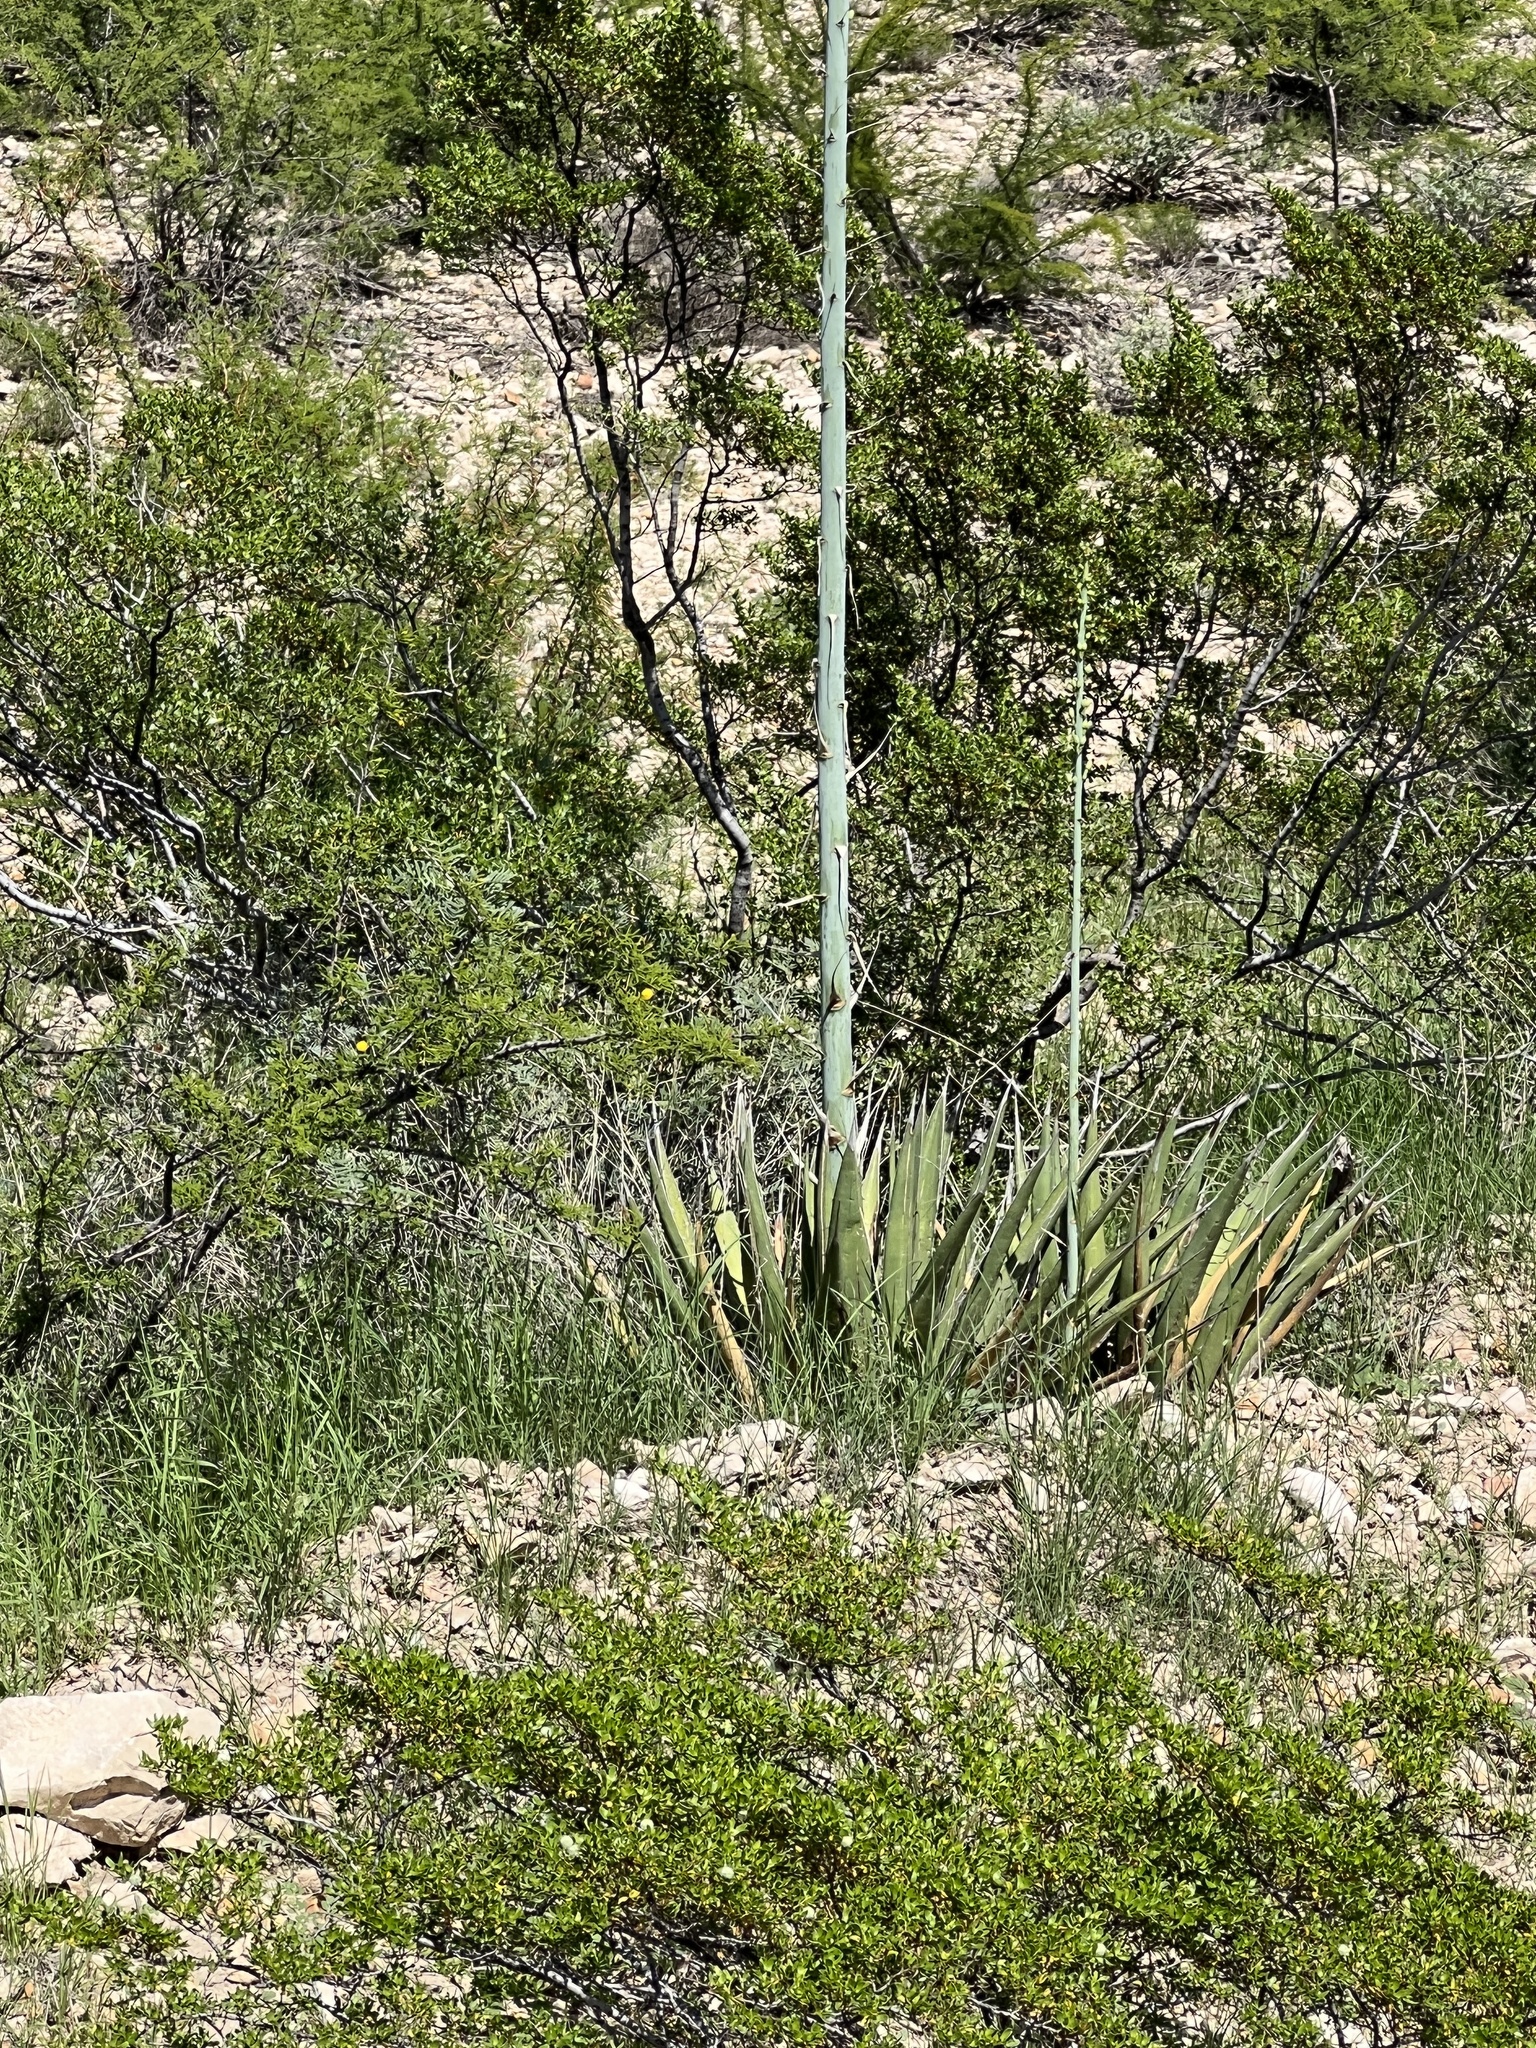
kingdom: Plantae
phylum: Tracheophyta
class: Liliopsida
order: Asparagales
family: Asparagaceae
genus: Agave
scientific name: Agave lechuguilla
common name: Lecheguilla agave
